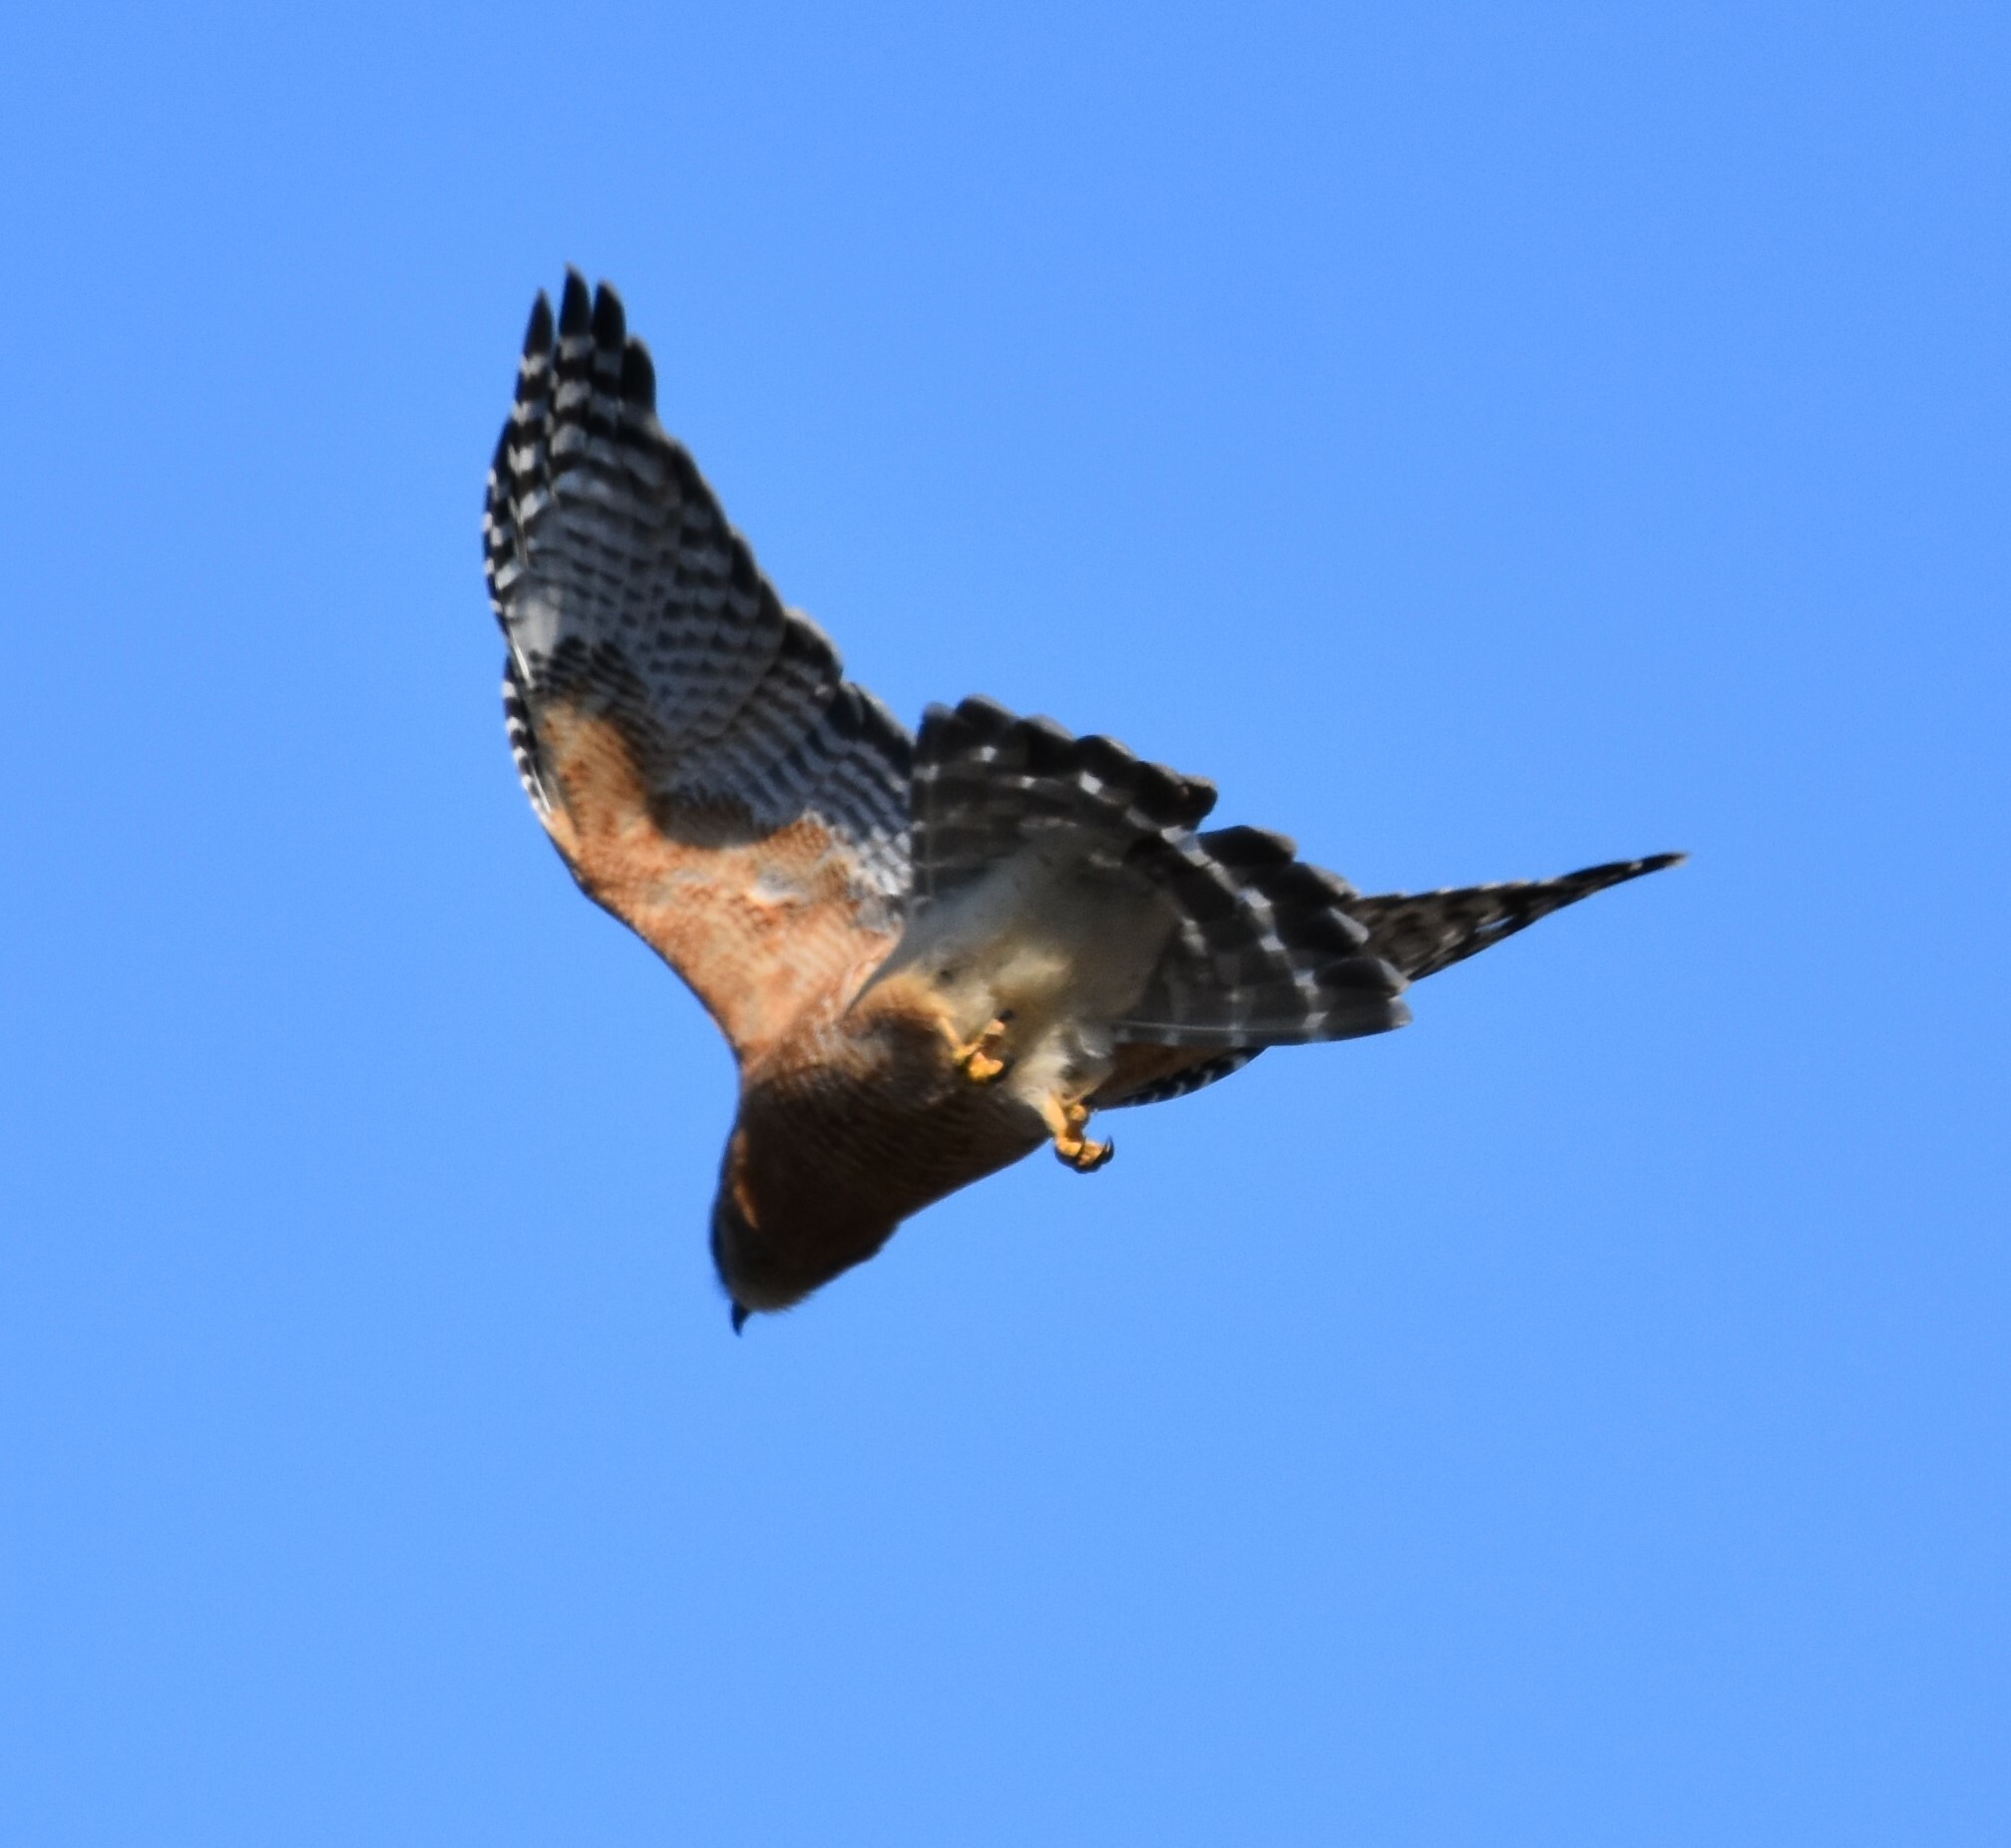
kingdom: Animalia
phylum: Chordata
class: Aves
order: Accipitriformes
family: Accipitridae
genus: Buteo
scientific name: Buteo lineatus
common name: Red-shouldered hawk
